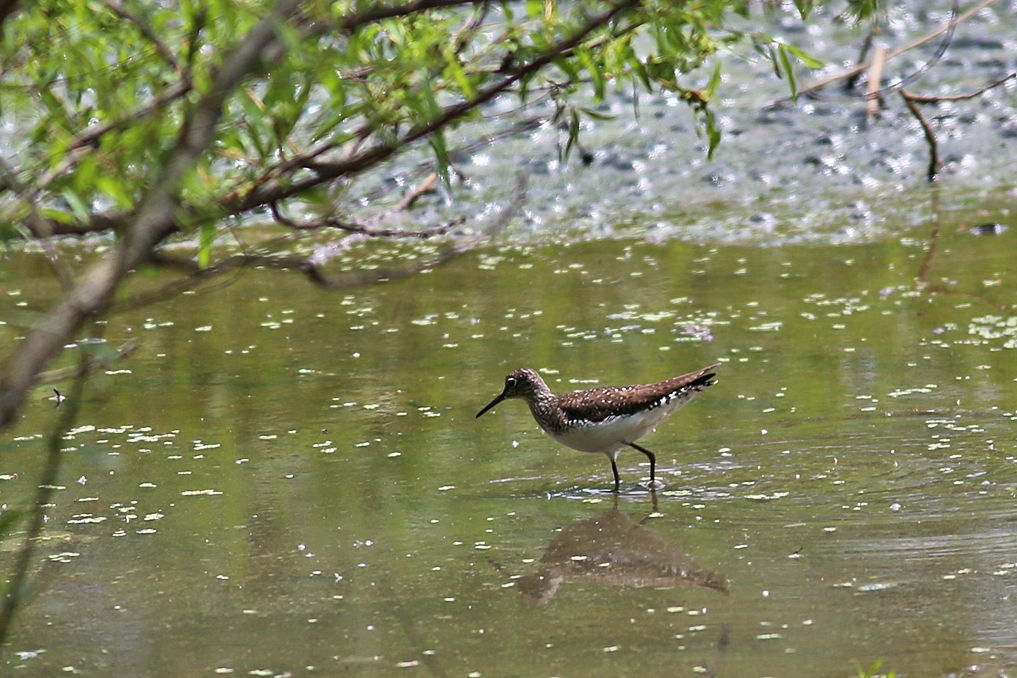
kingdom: Animalia
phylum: Chordata
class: Aves
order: Charadriiformes
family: Scolopacidae
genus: Tringa
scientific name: Tringa solitaria
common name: Solitary sandpiper
